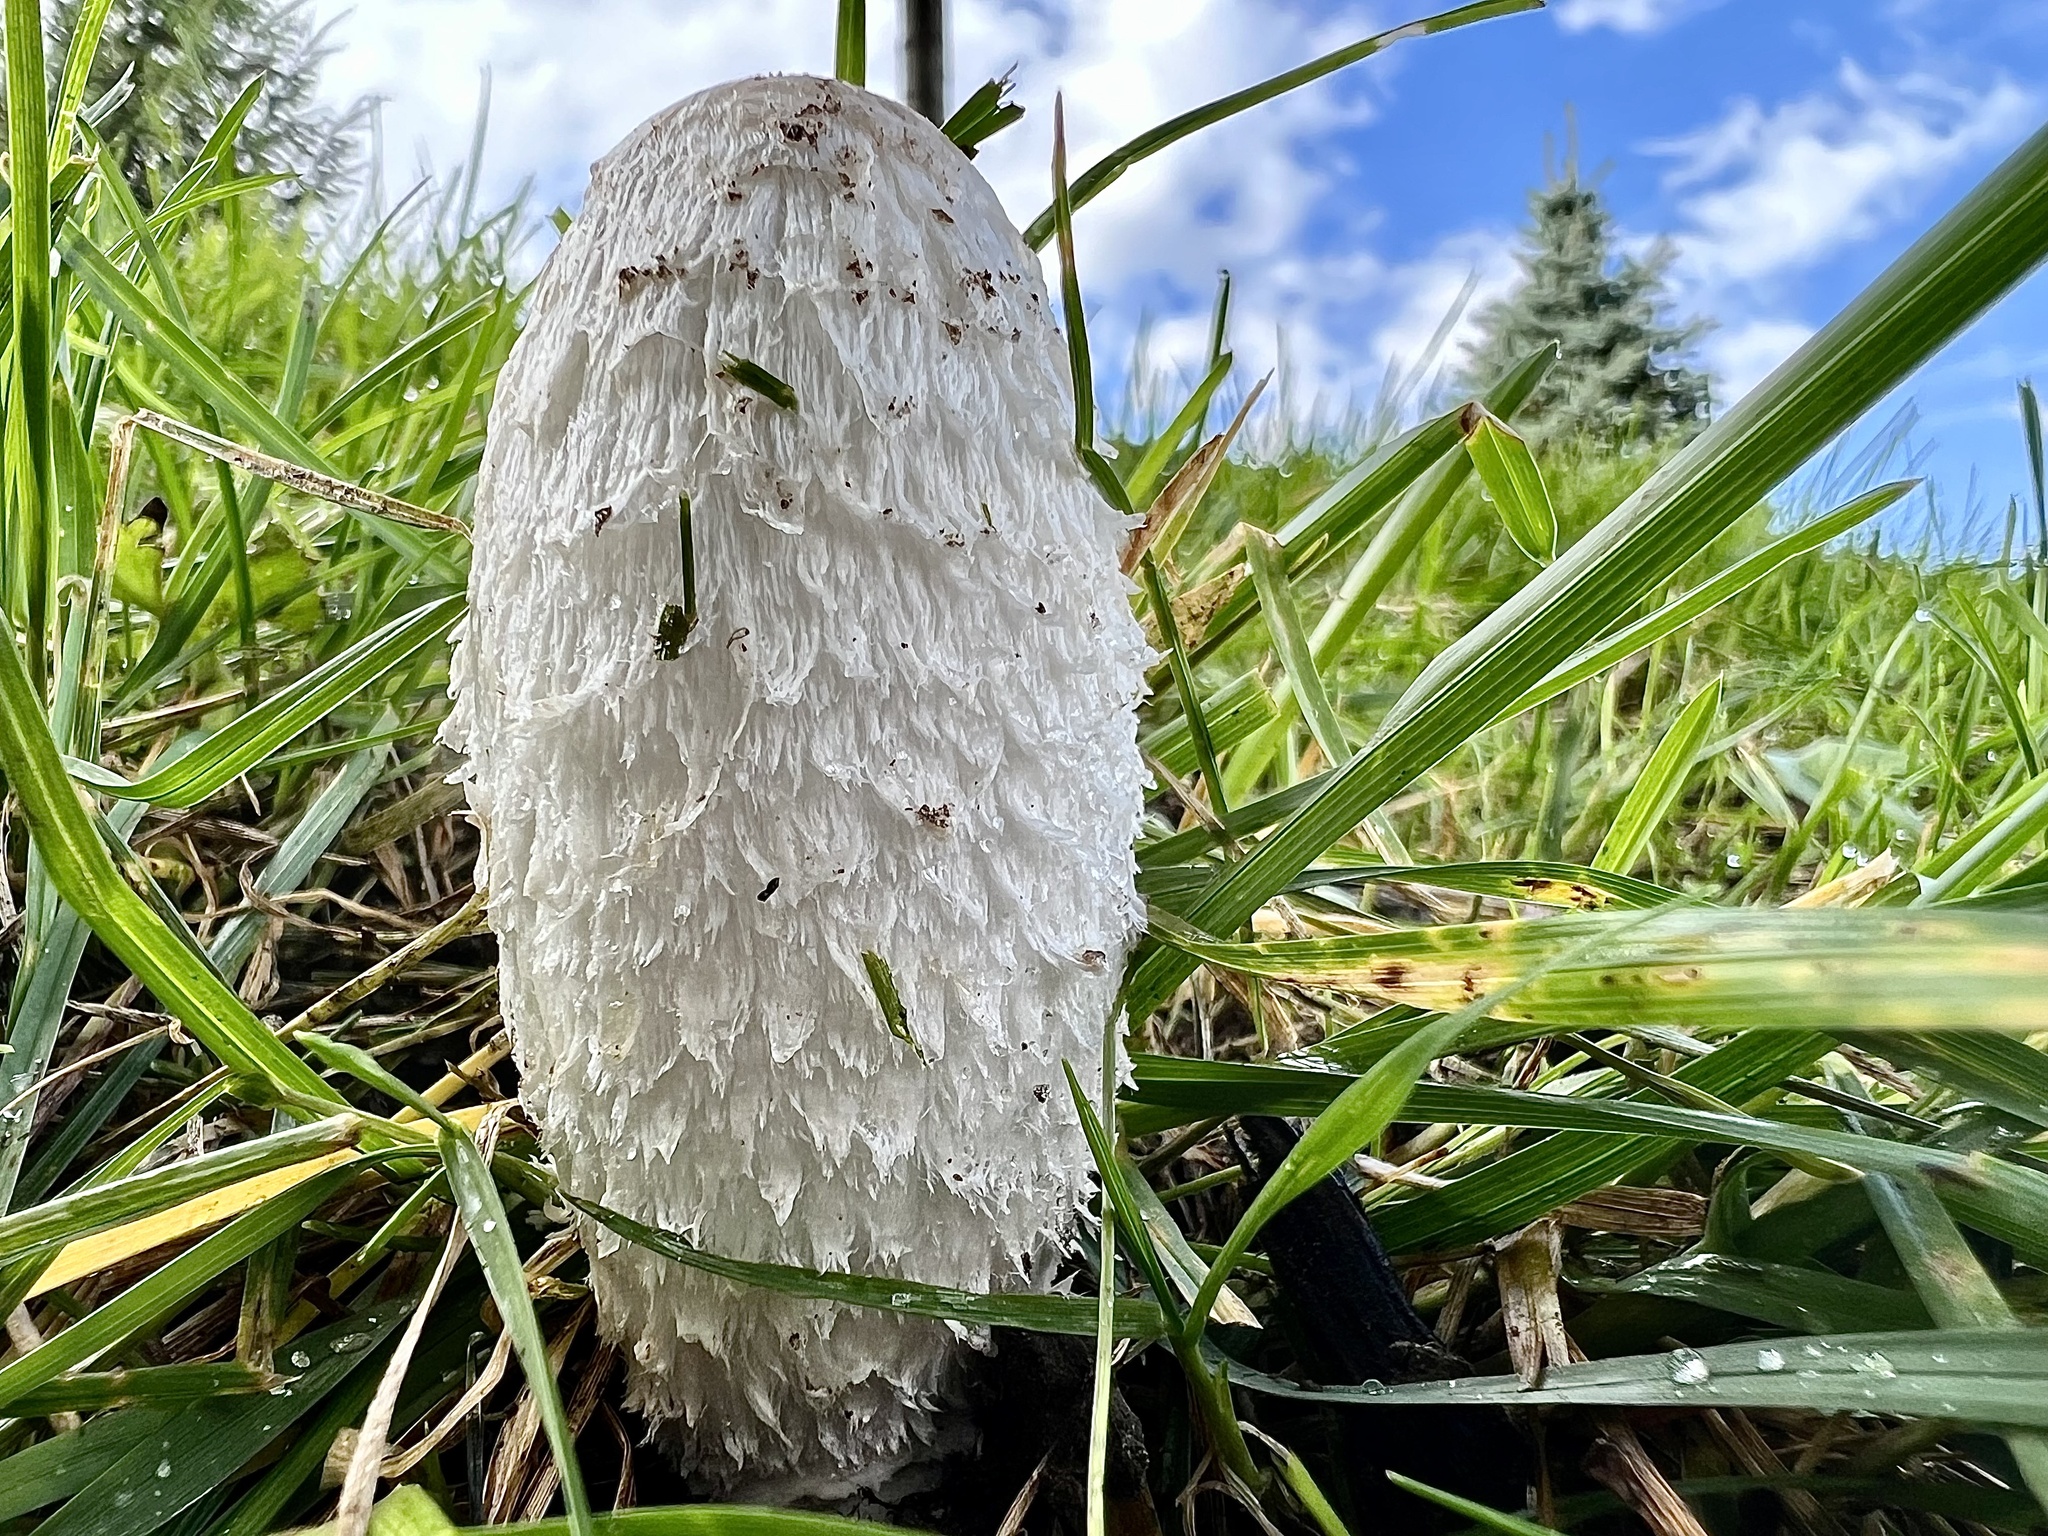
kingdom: Fungi
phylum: Basidiomycota
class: Agaricomycetes
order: Agaricales
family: Agaricaceae
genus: Coprinus
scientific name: Coprinus comatus
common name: Lawyer's wig
